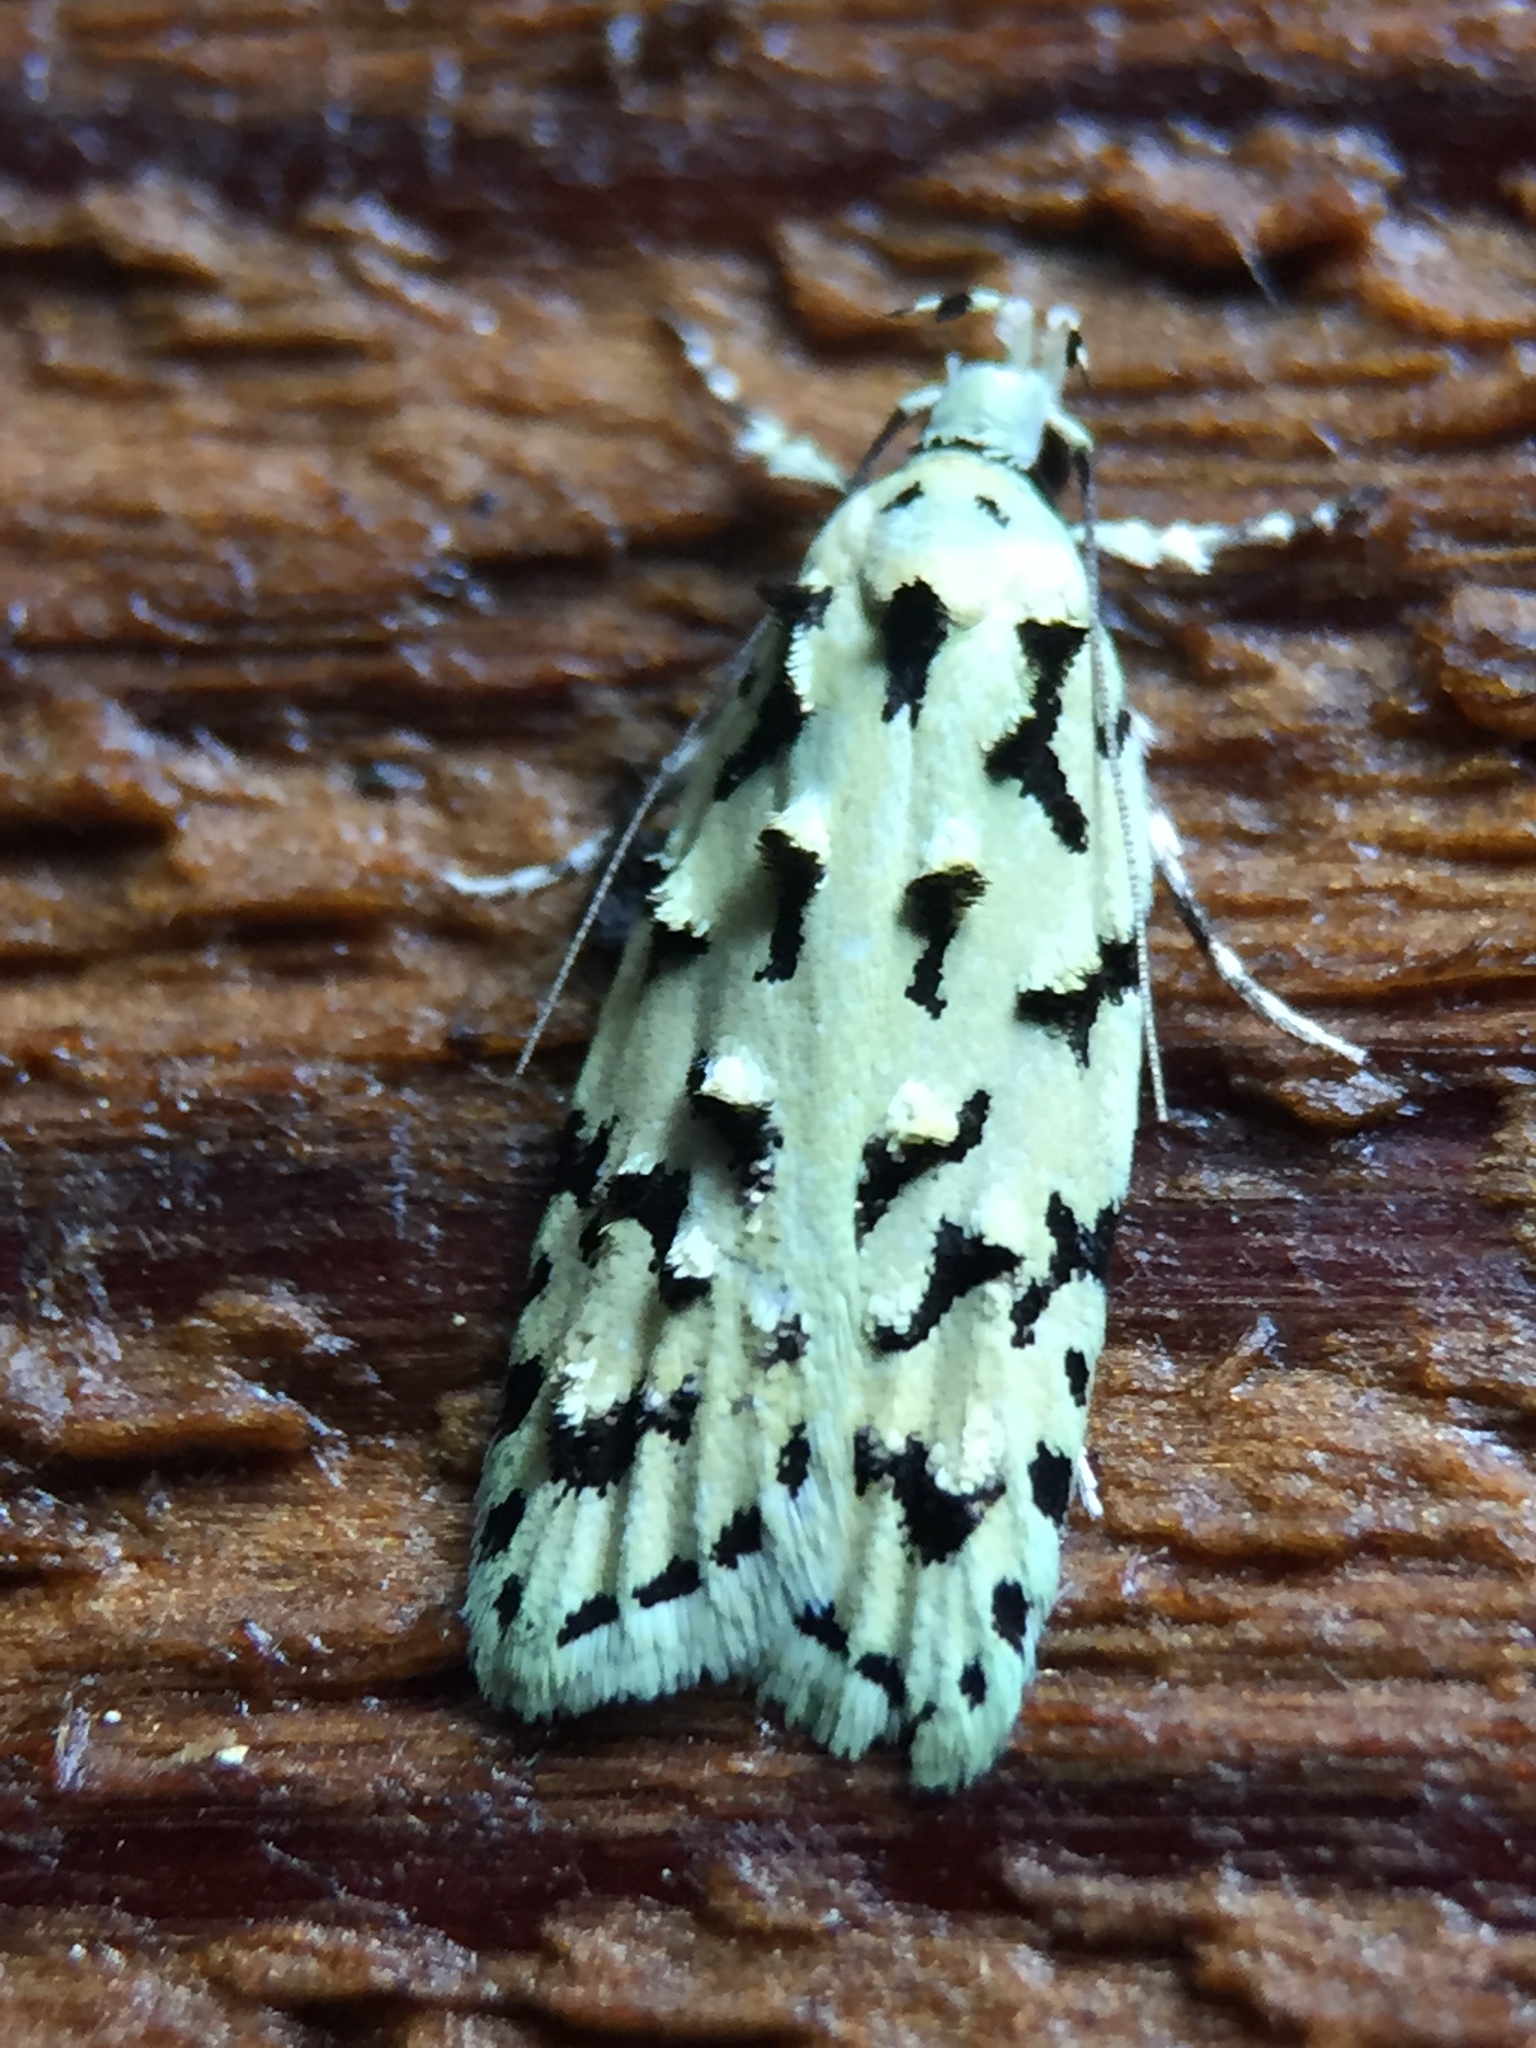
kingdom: Animalia
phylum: Arthropoda
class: Insecta
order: Lepidoptera
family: Oecophoridae
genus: Izatha
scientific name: Izatha peroneanella
